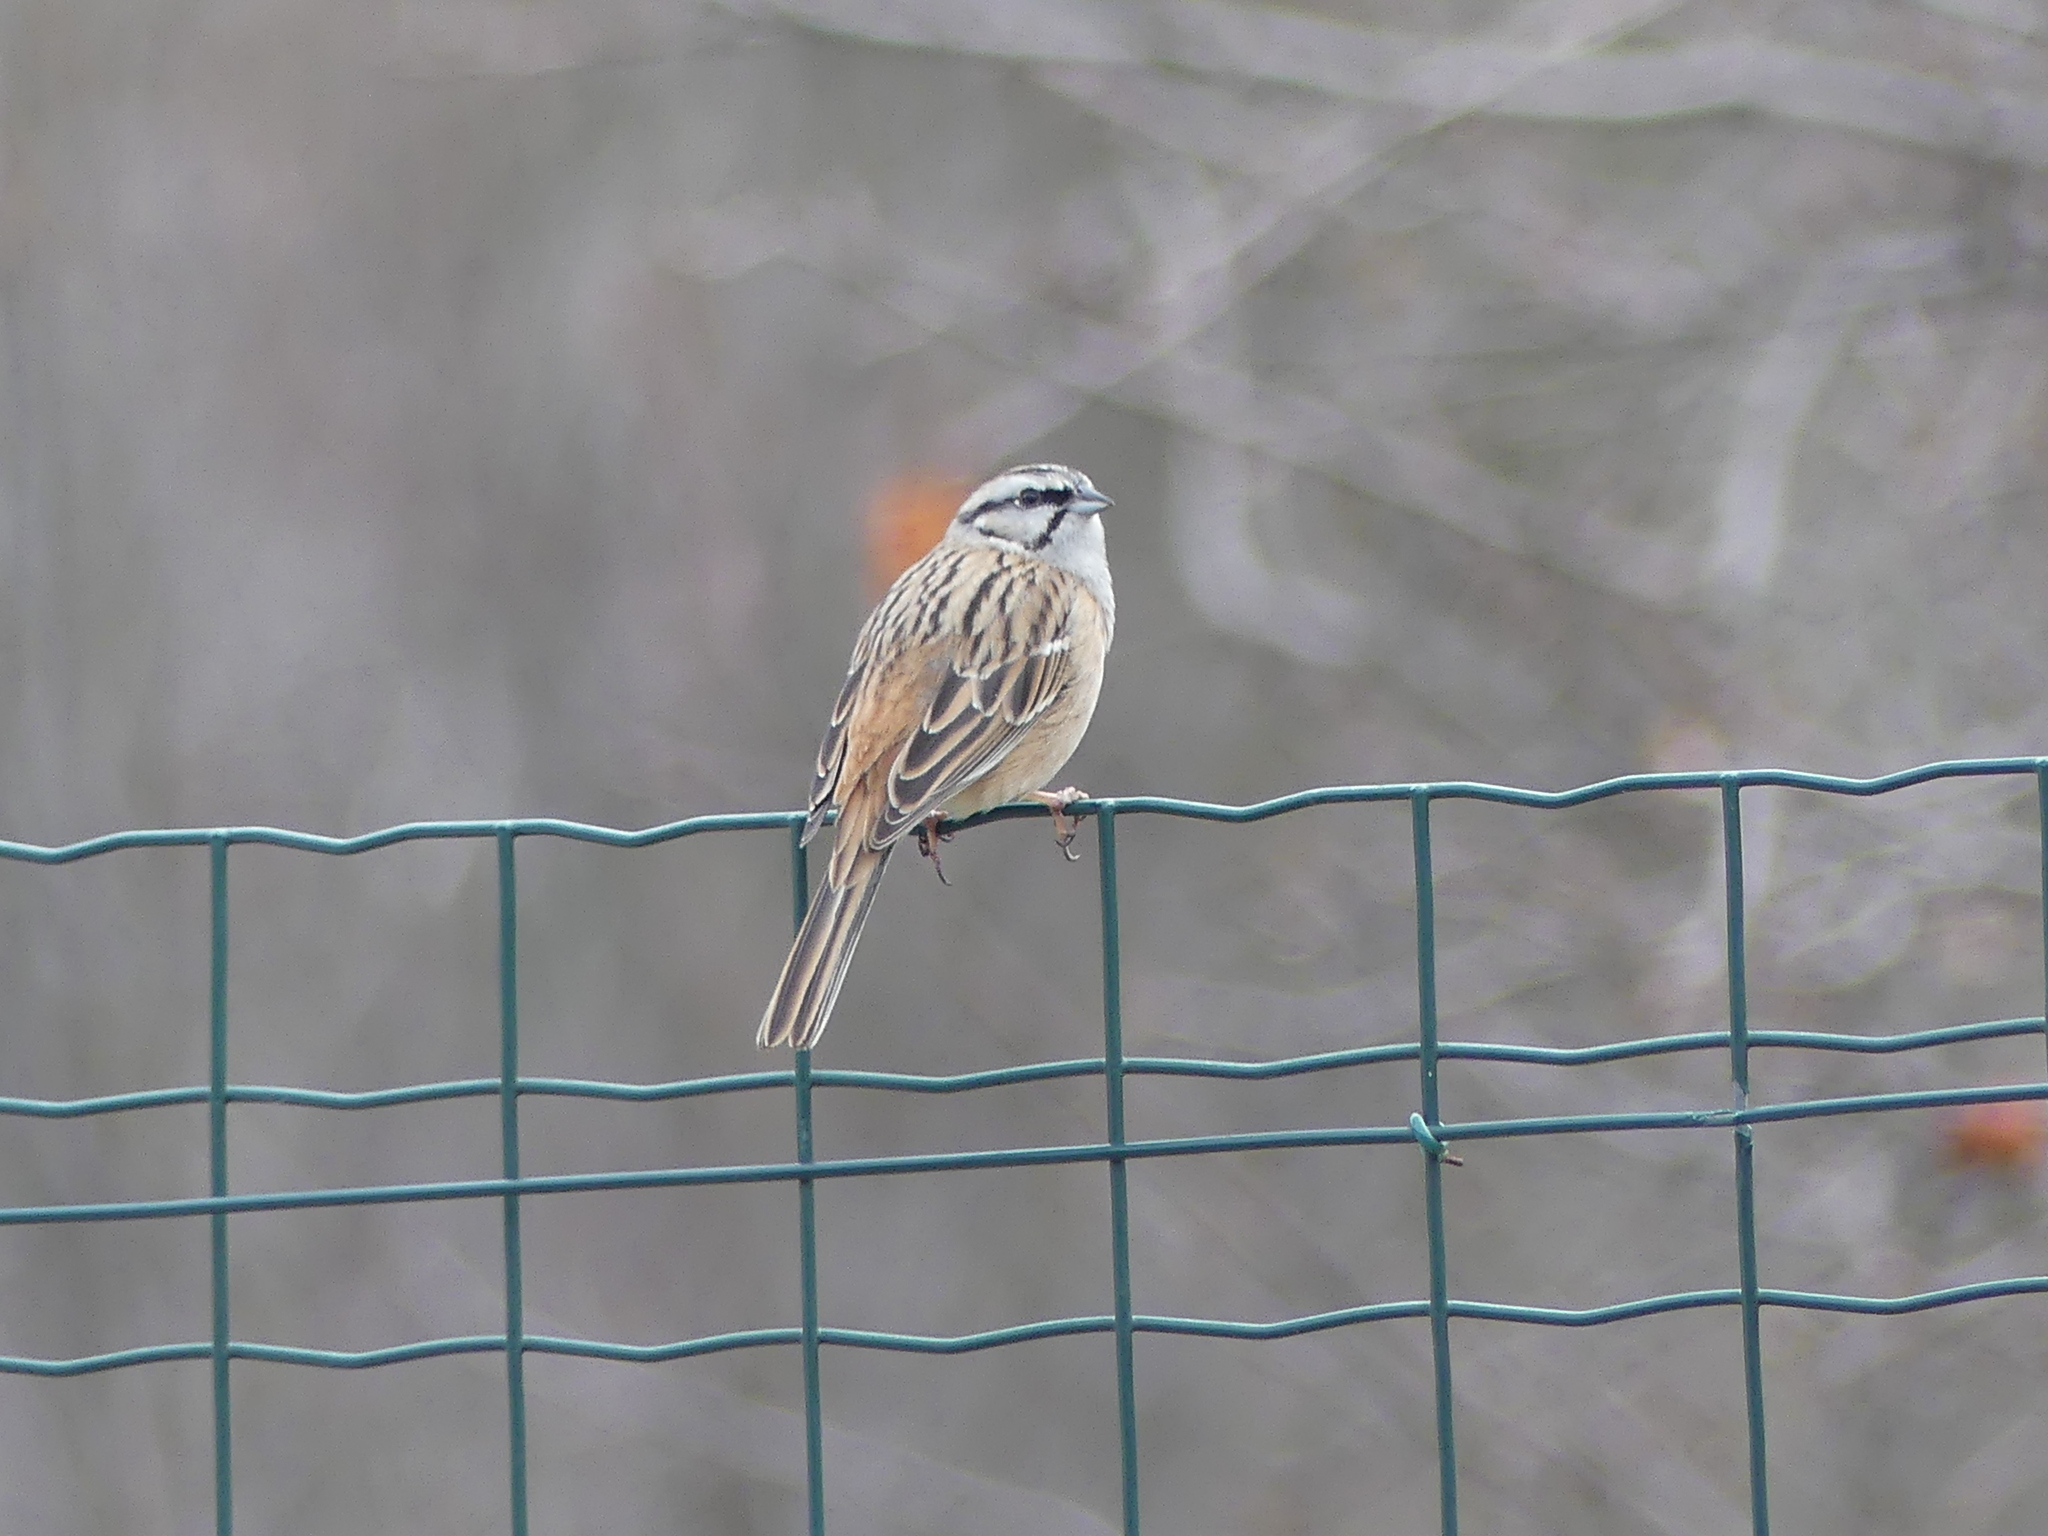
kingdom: Animalia
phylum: Chordata
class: Aves
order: Passeriformes
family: Emberizidae
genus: Emberiza
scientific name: Emberiza cia
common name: Rock bunting
